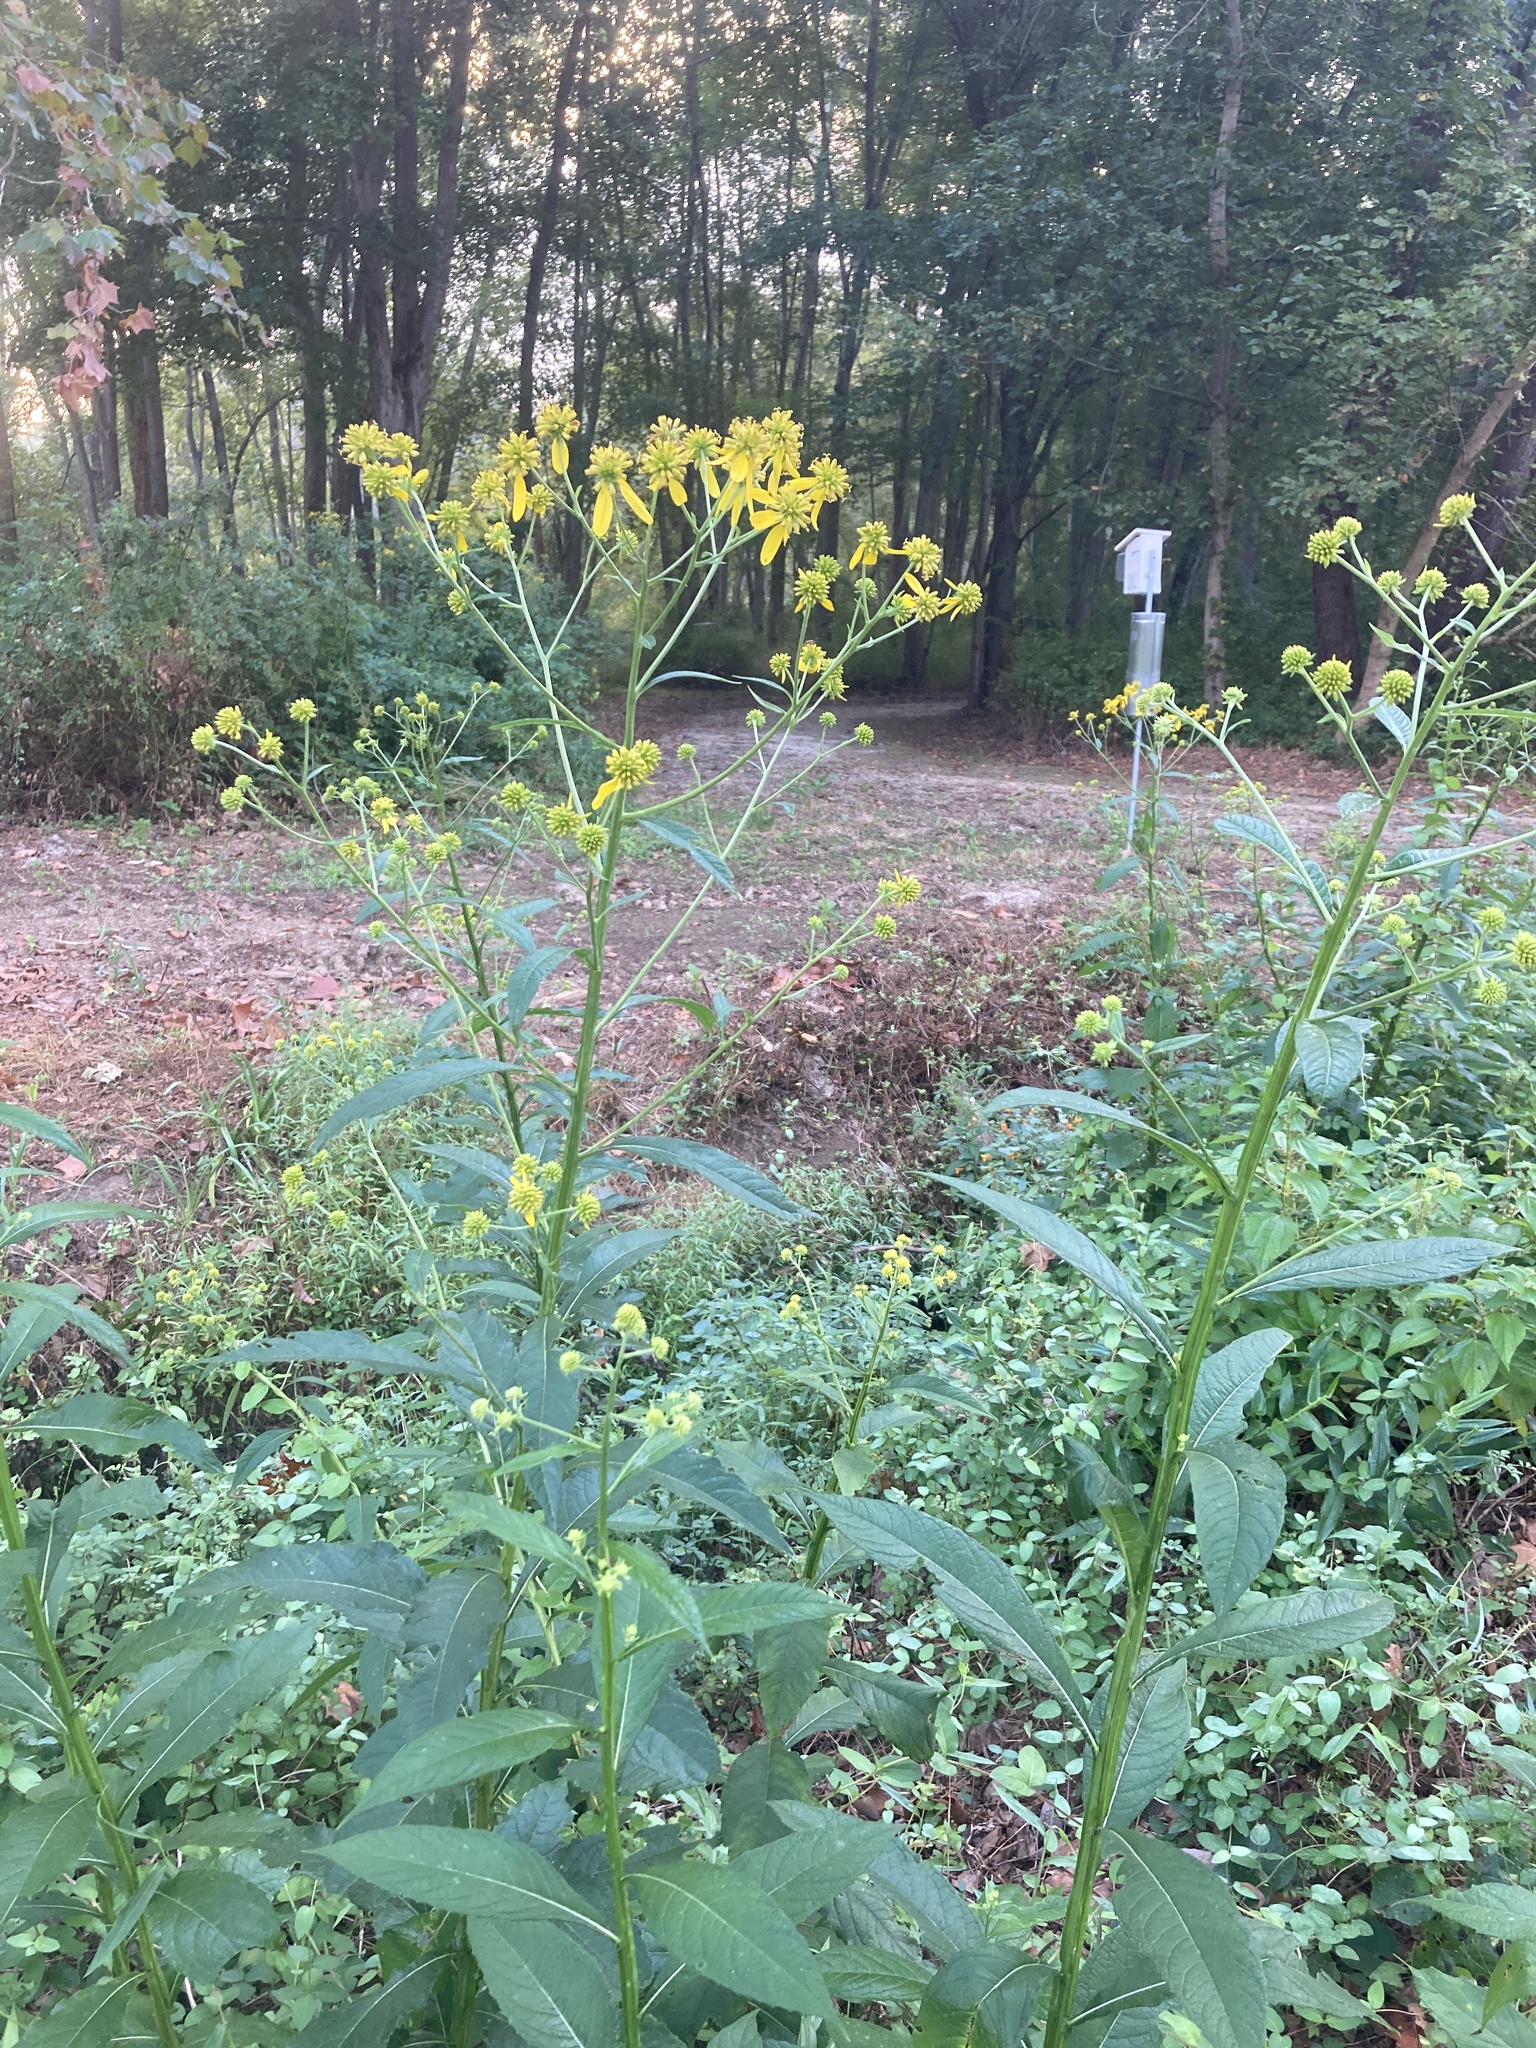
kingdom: Plantae
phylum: Tracheophyta
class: Magnoliopsida
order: Asterales
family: Asteraceae
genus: Verbesina
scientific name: Verbesina alternifolia
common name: Wingstem
